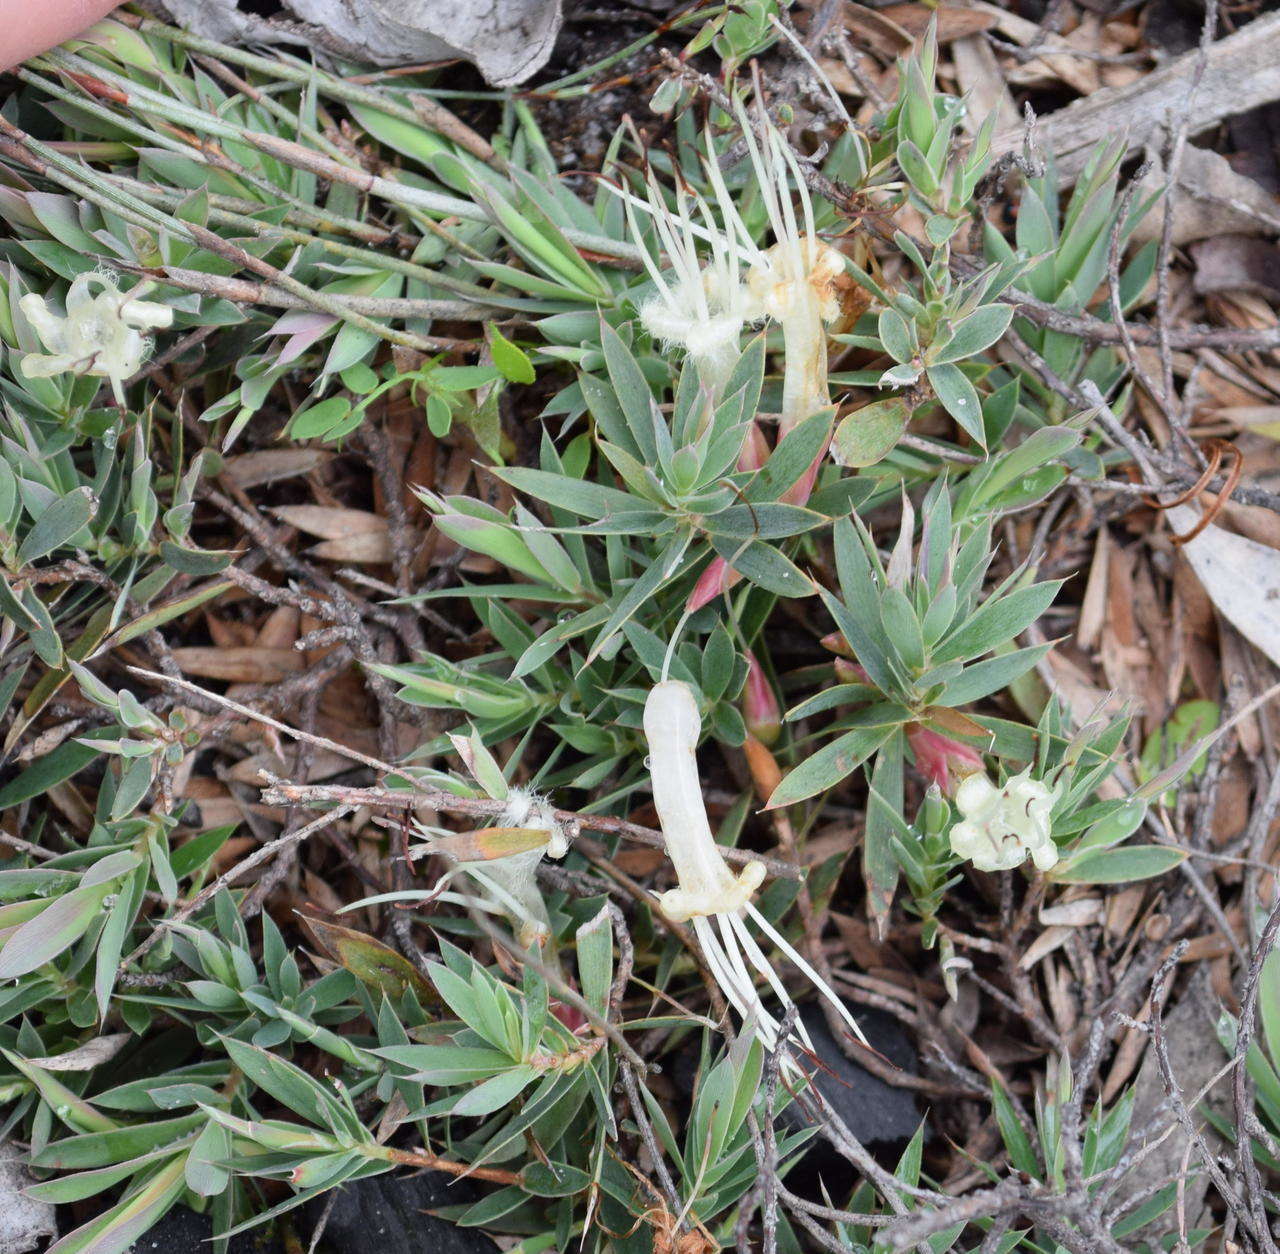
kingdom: Plantae
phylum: Tracheophyta
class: Magnoliopsida
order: Ericales
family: Ericaceae
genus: Styphelia
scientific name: Styphelia adscendens
